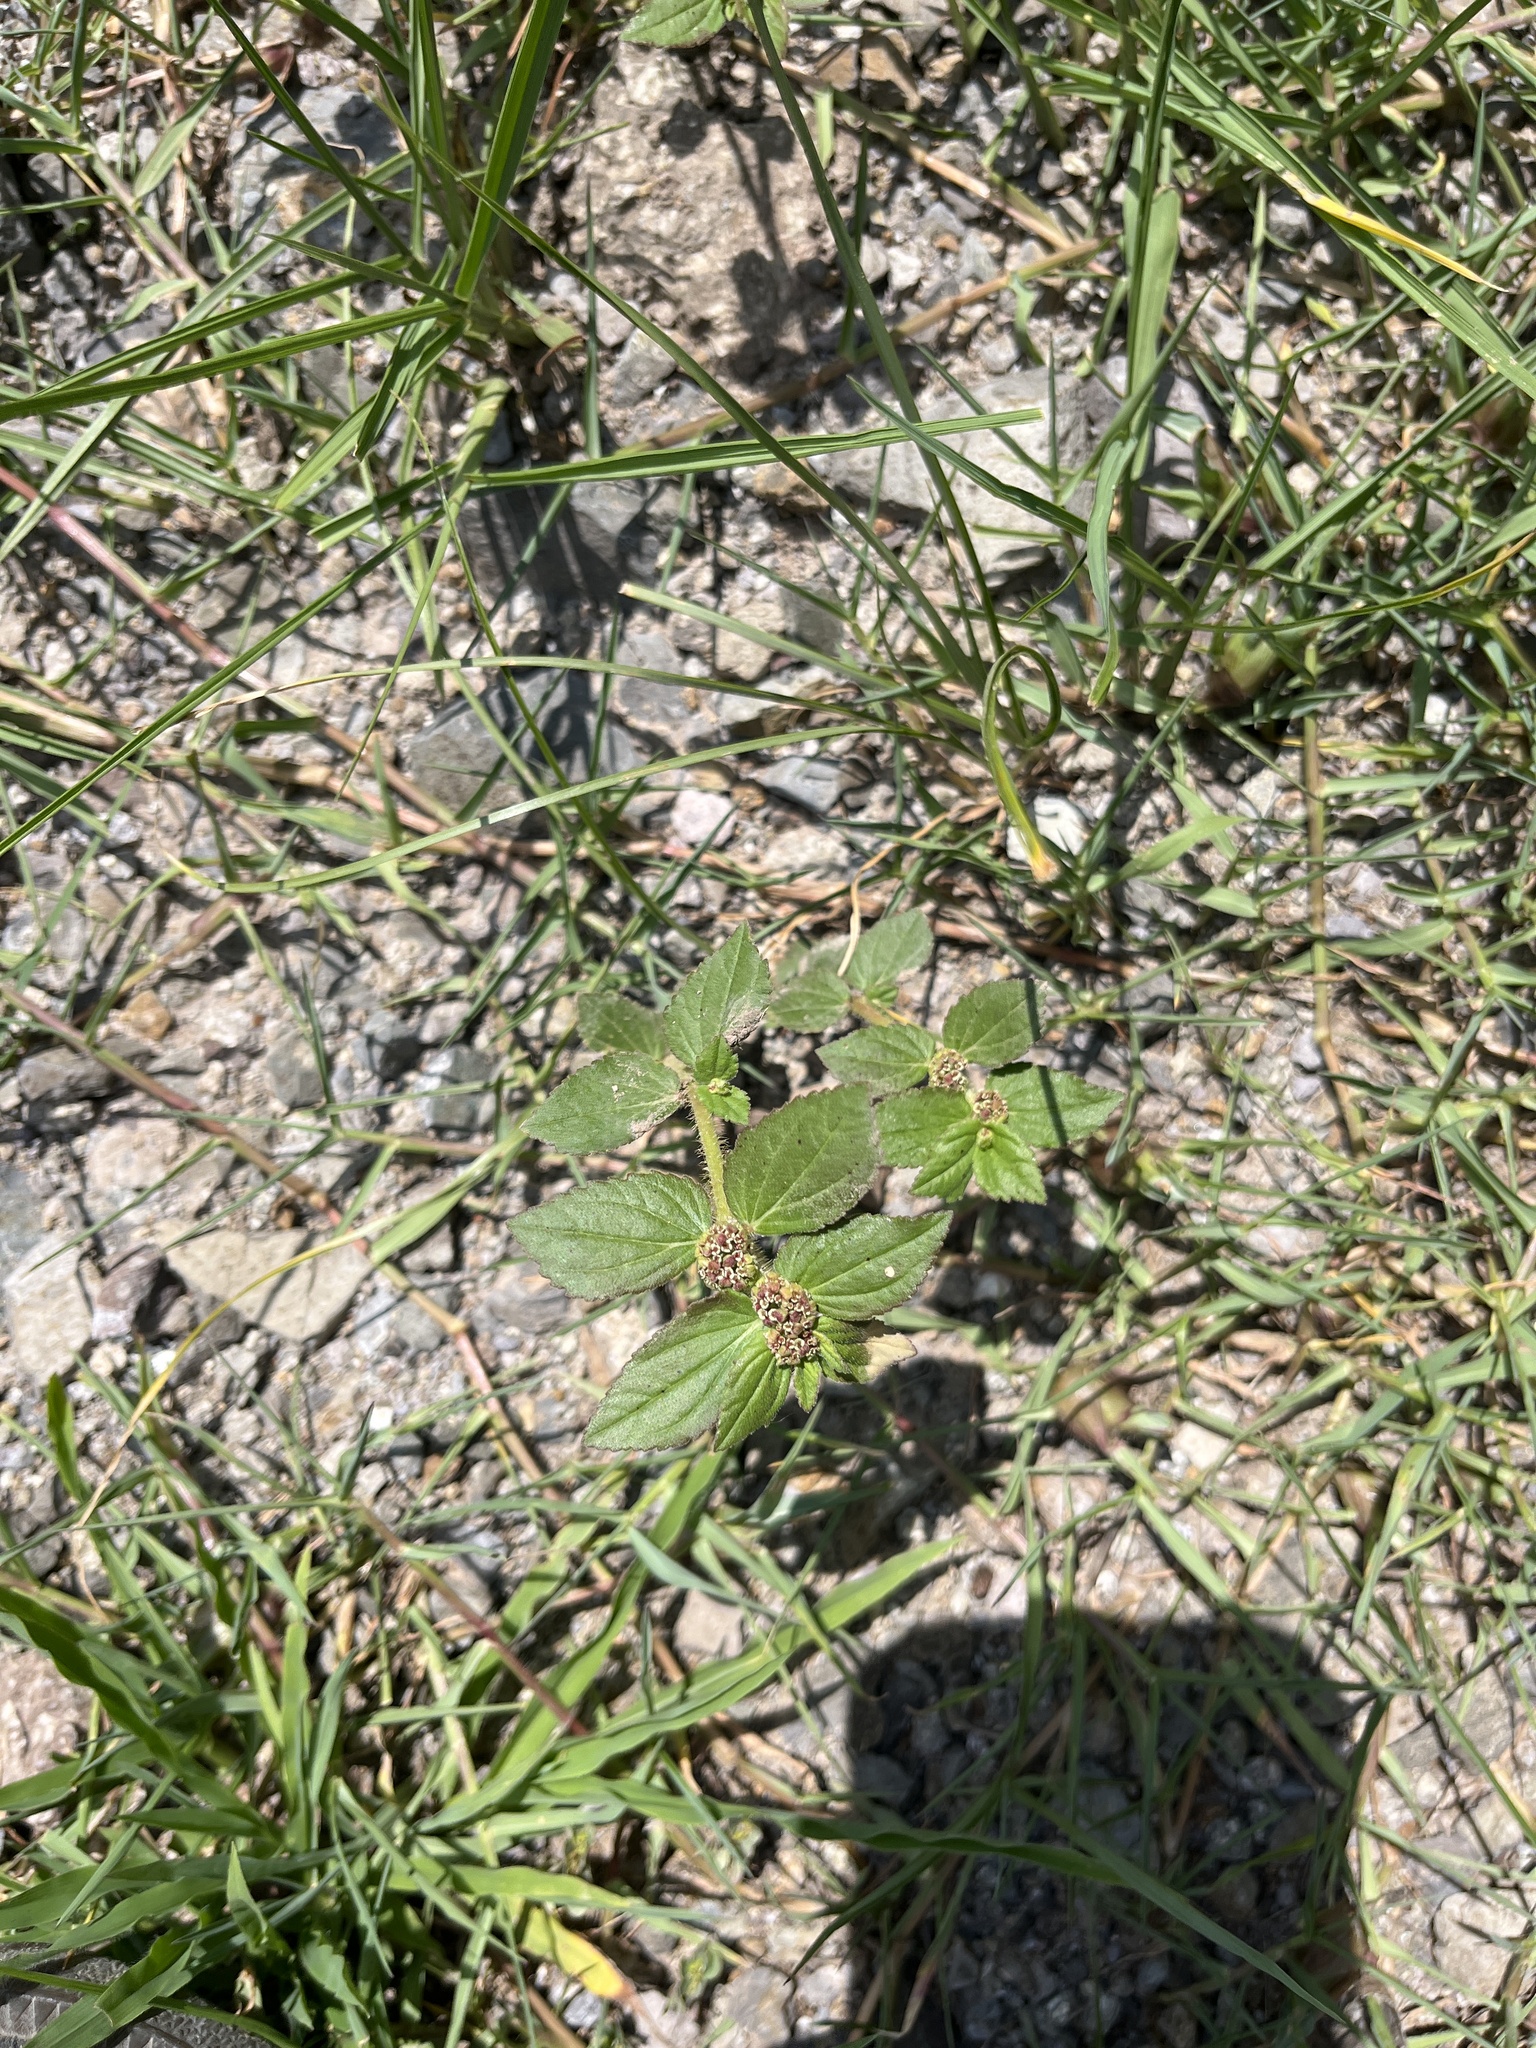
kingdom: Plantae
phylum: Tracheophyta
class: Magnoliopsida
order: Malpighiales
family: Euphorbiaceae
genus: Euphorbia
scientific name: Euphorbia hirta
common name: Pillpod sandmat
